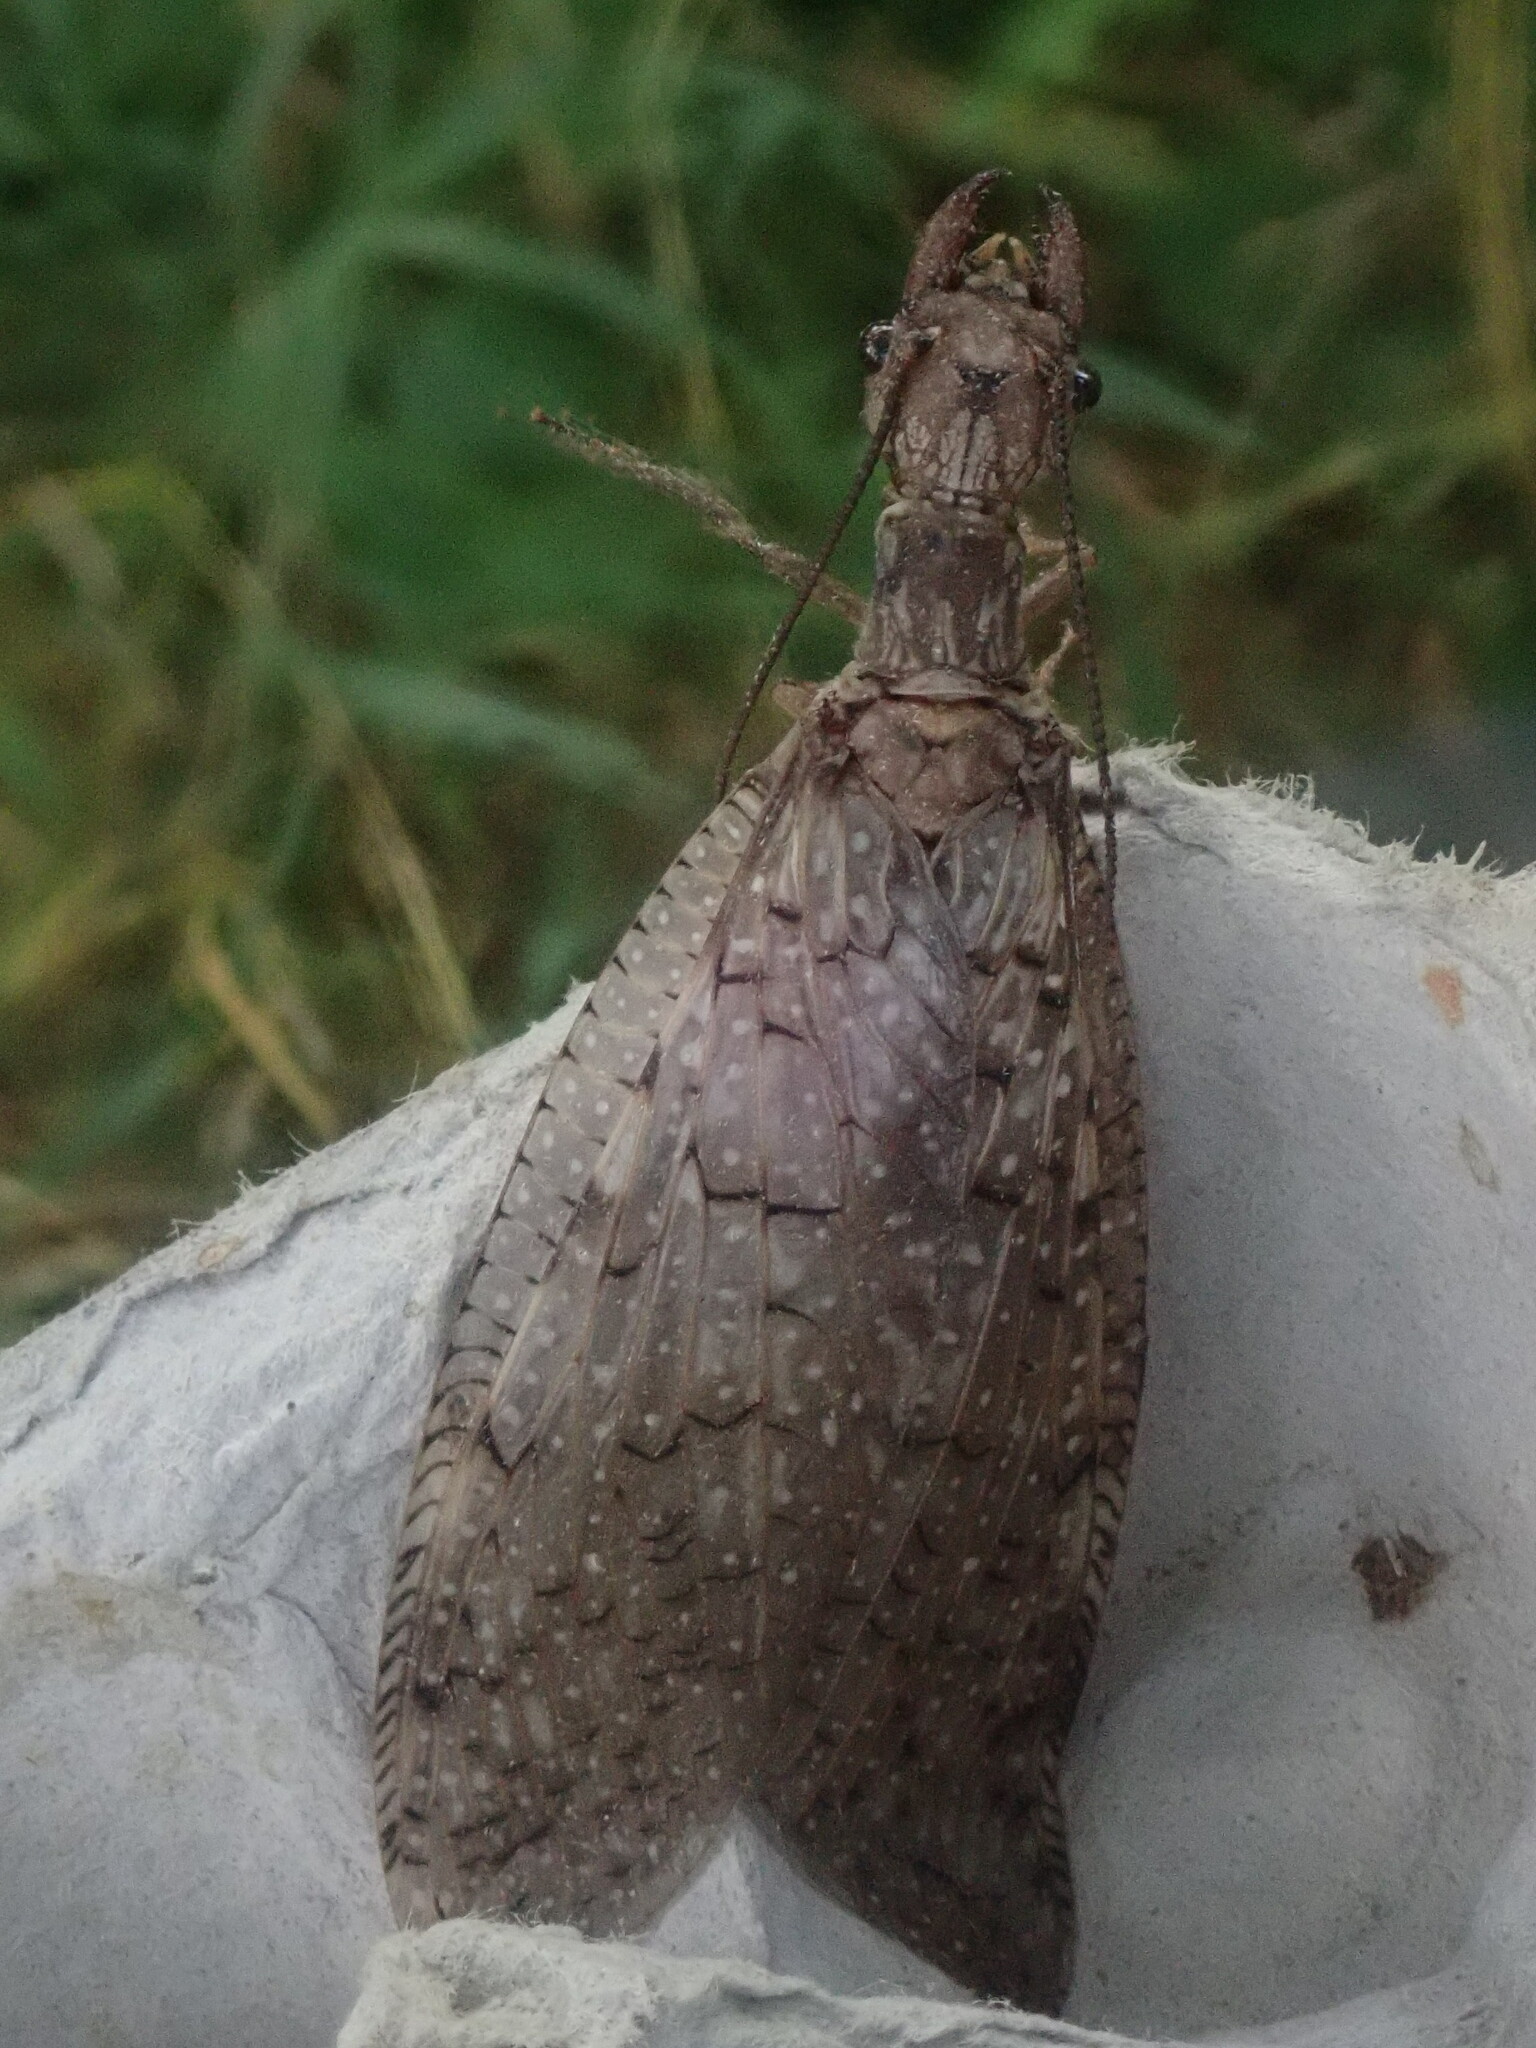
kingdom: Animalia
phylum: Arthropoda
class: Insecta
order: Megaloptera
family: Corydalidae
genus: Corydalus
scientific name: Corydalus cornutus
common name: Dobsonfly
